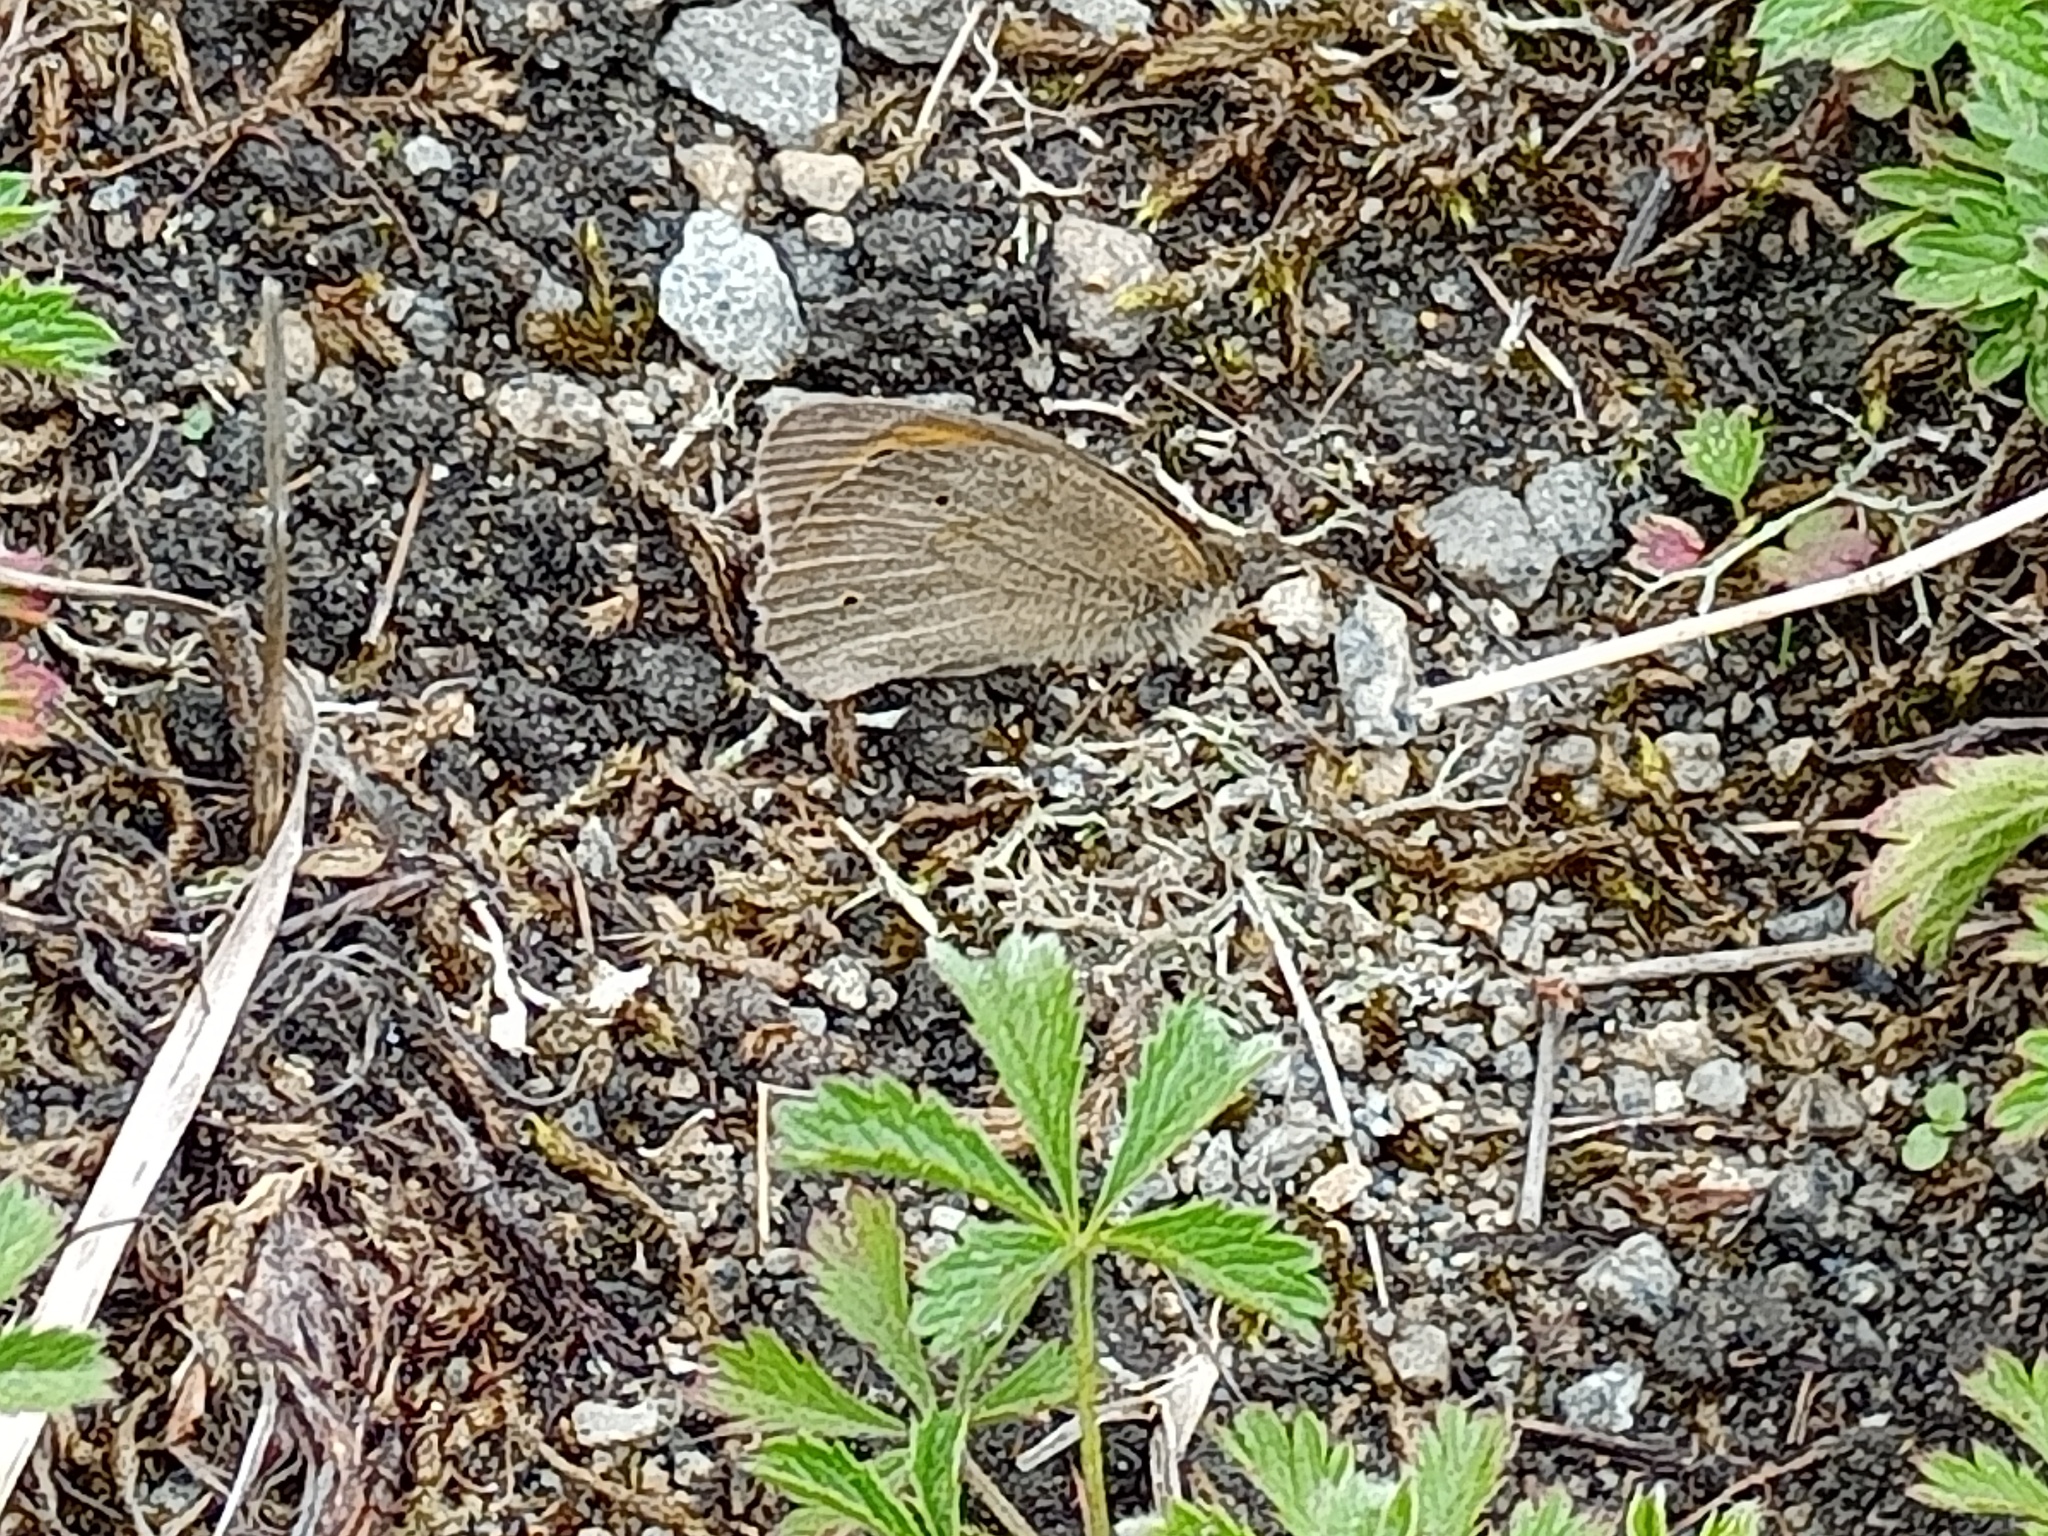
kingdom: Animalia
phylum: Arthropoda
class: Insecta
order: Lepidoptera
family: Nymphalidae
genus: Maniola
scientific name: Maniola jurtina
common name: Meadow brown
